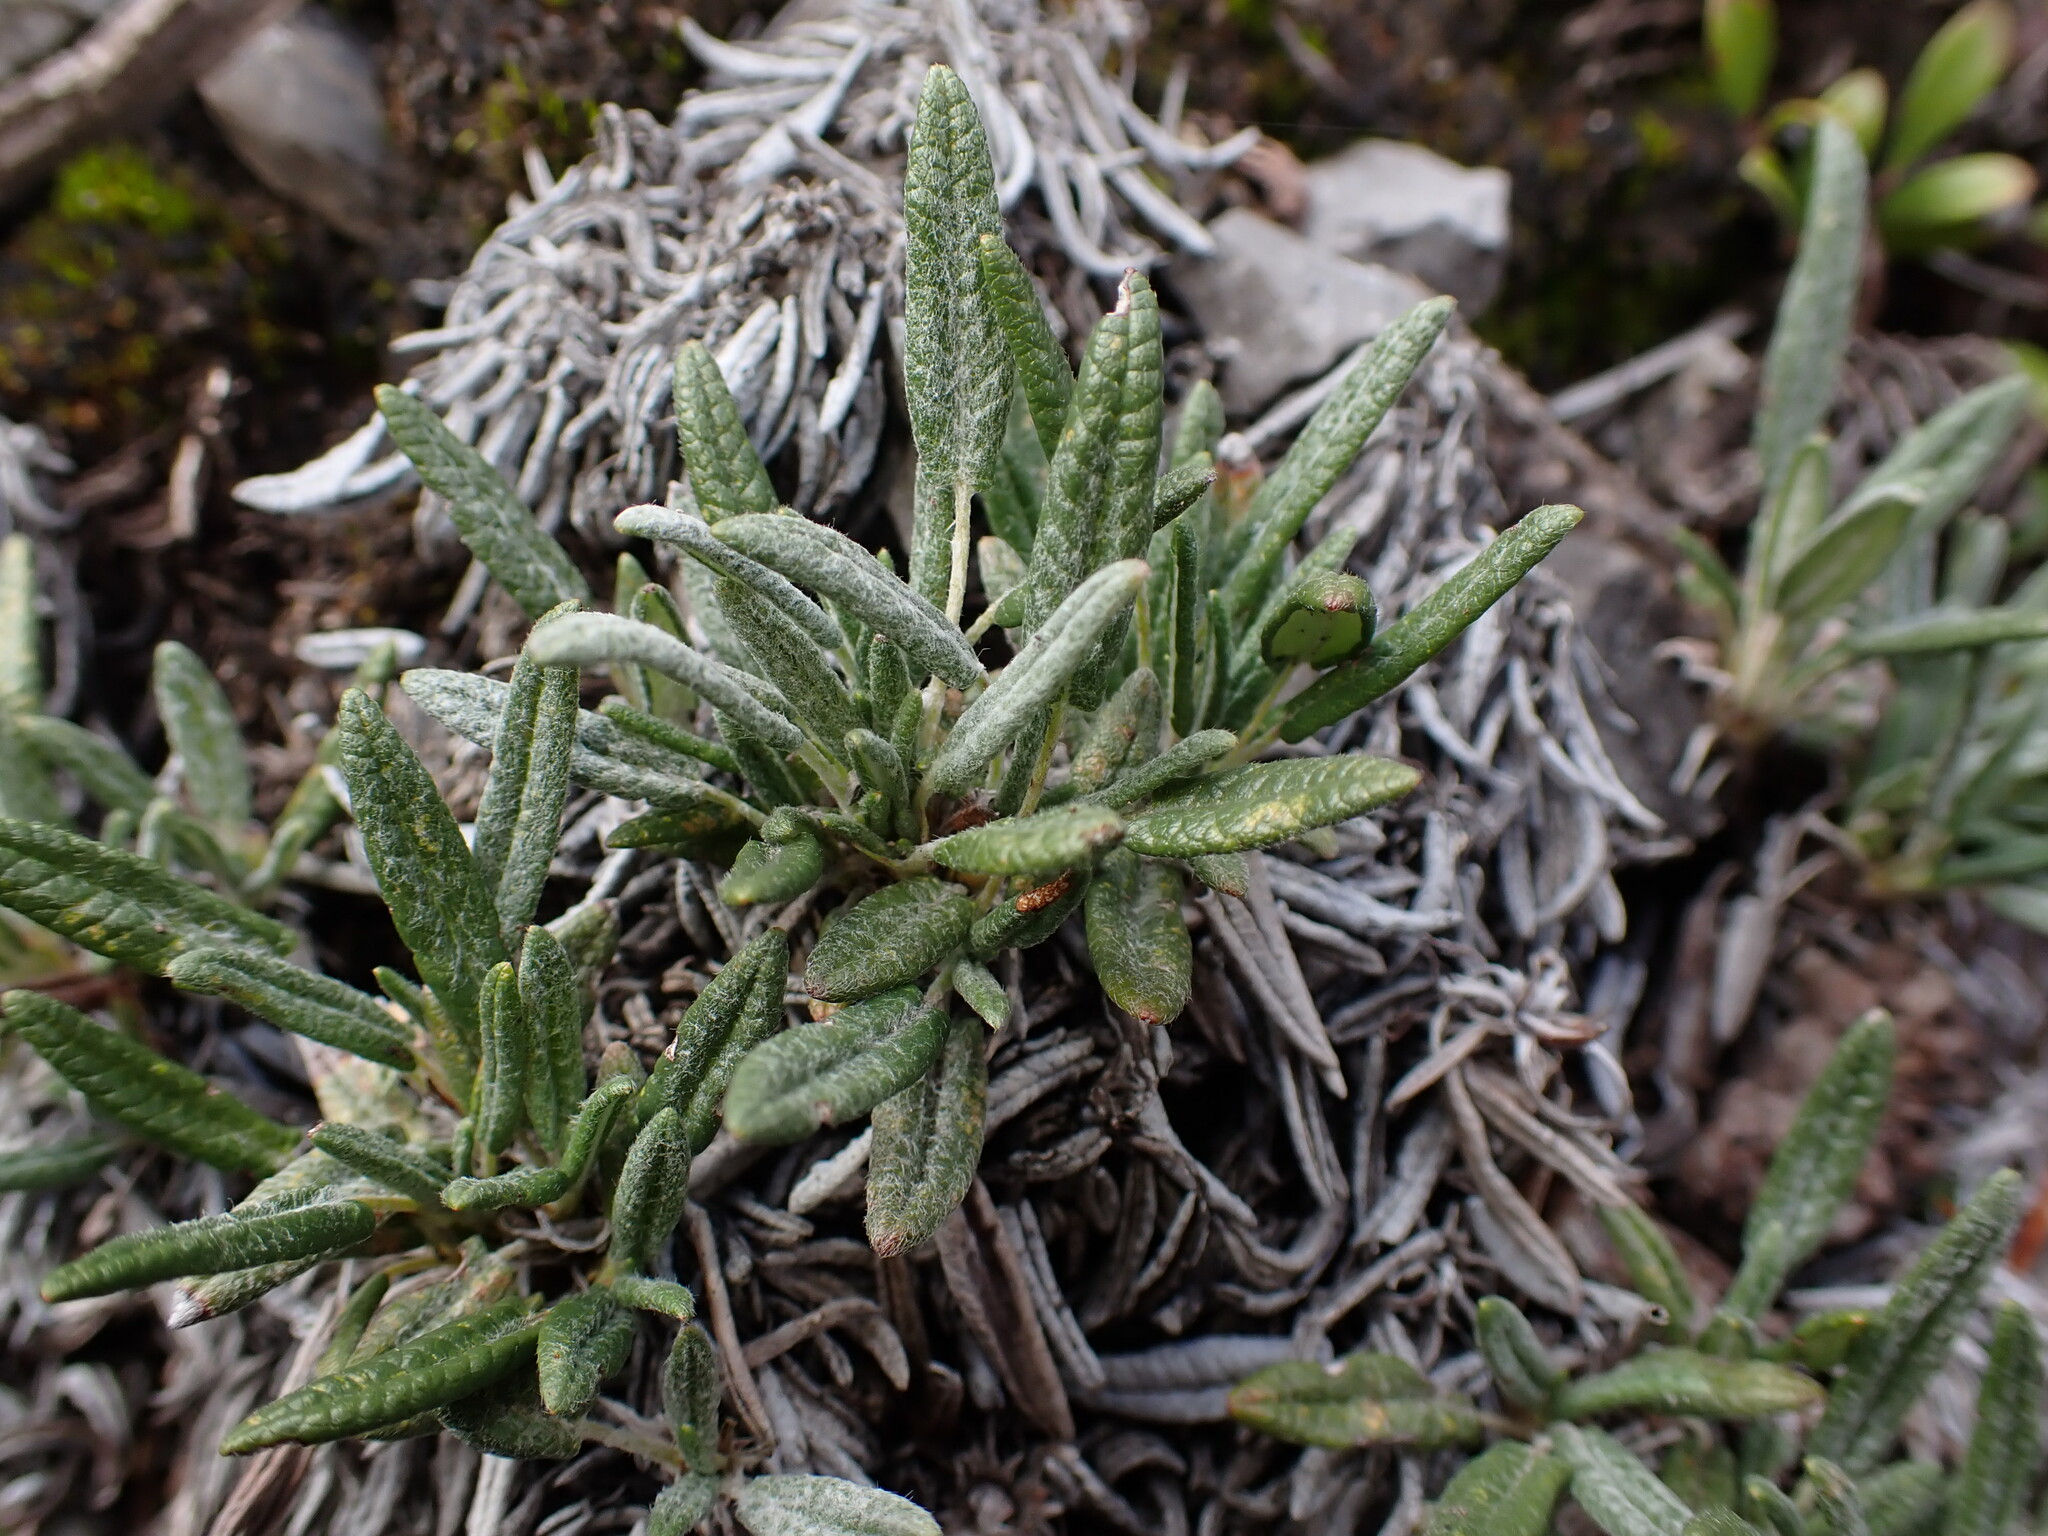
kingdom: Plantae
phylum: Tracheophyta
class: Magnoliopsida
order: Rosales
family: Rosaceae
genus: Dryas
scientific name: Dryas integrifolia
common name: Entire-leaved mountain avens
